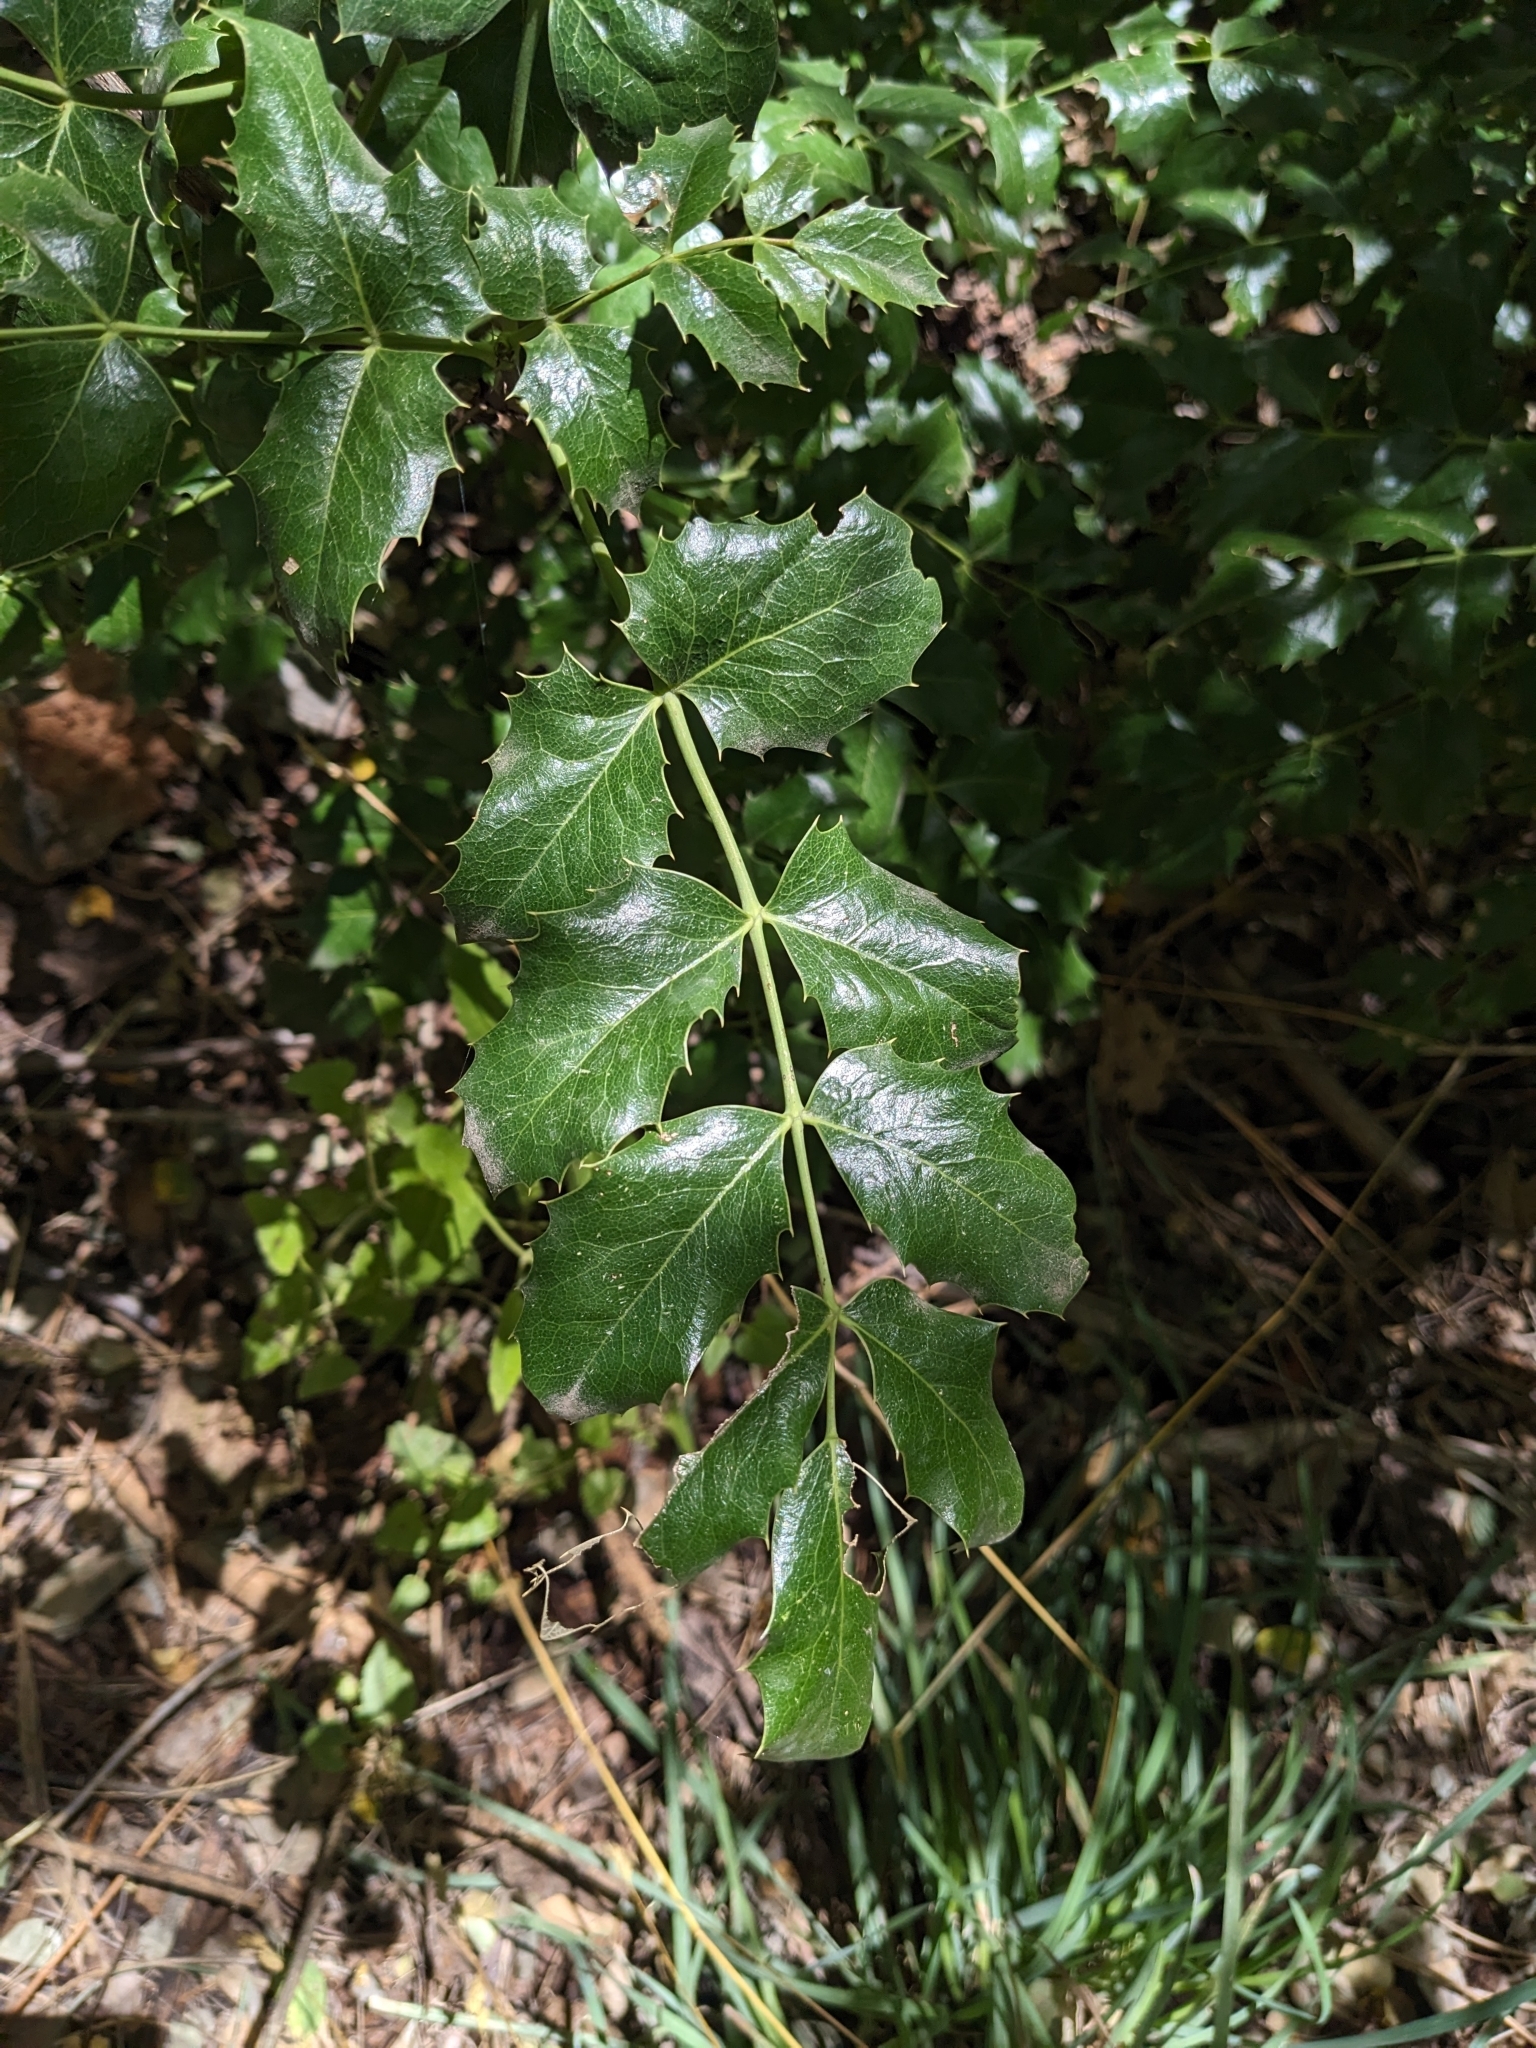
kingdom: Plantae
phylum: Tracheophyta
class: Magnoliopsida
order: Ranunculales
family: Berberidaceae
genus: Mahonia
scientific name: Mahonia wilcoxii
